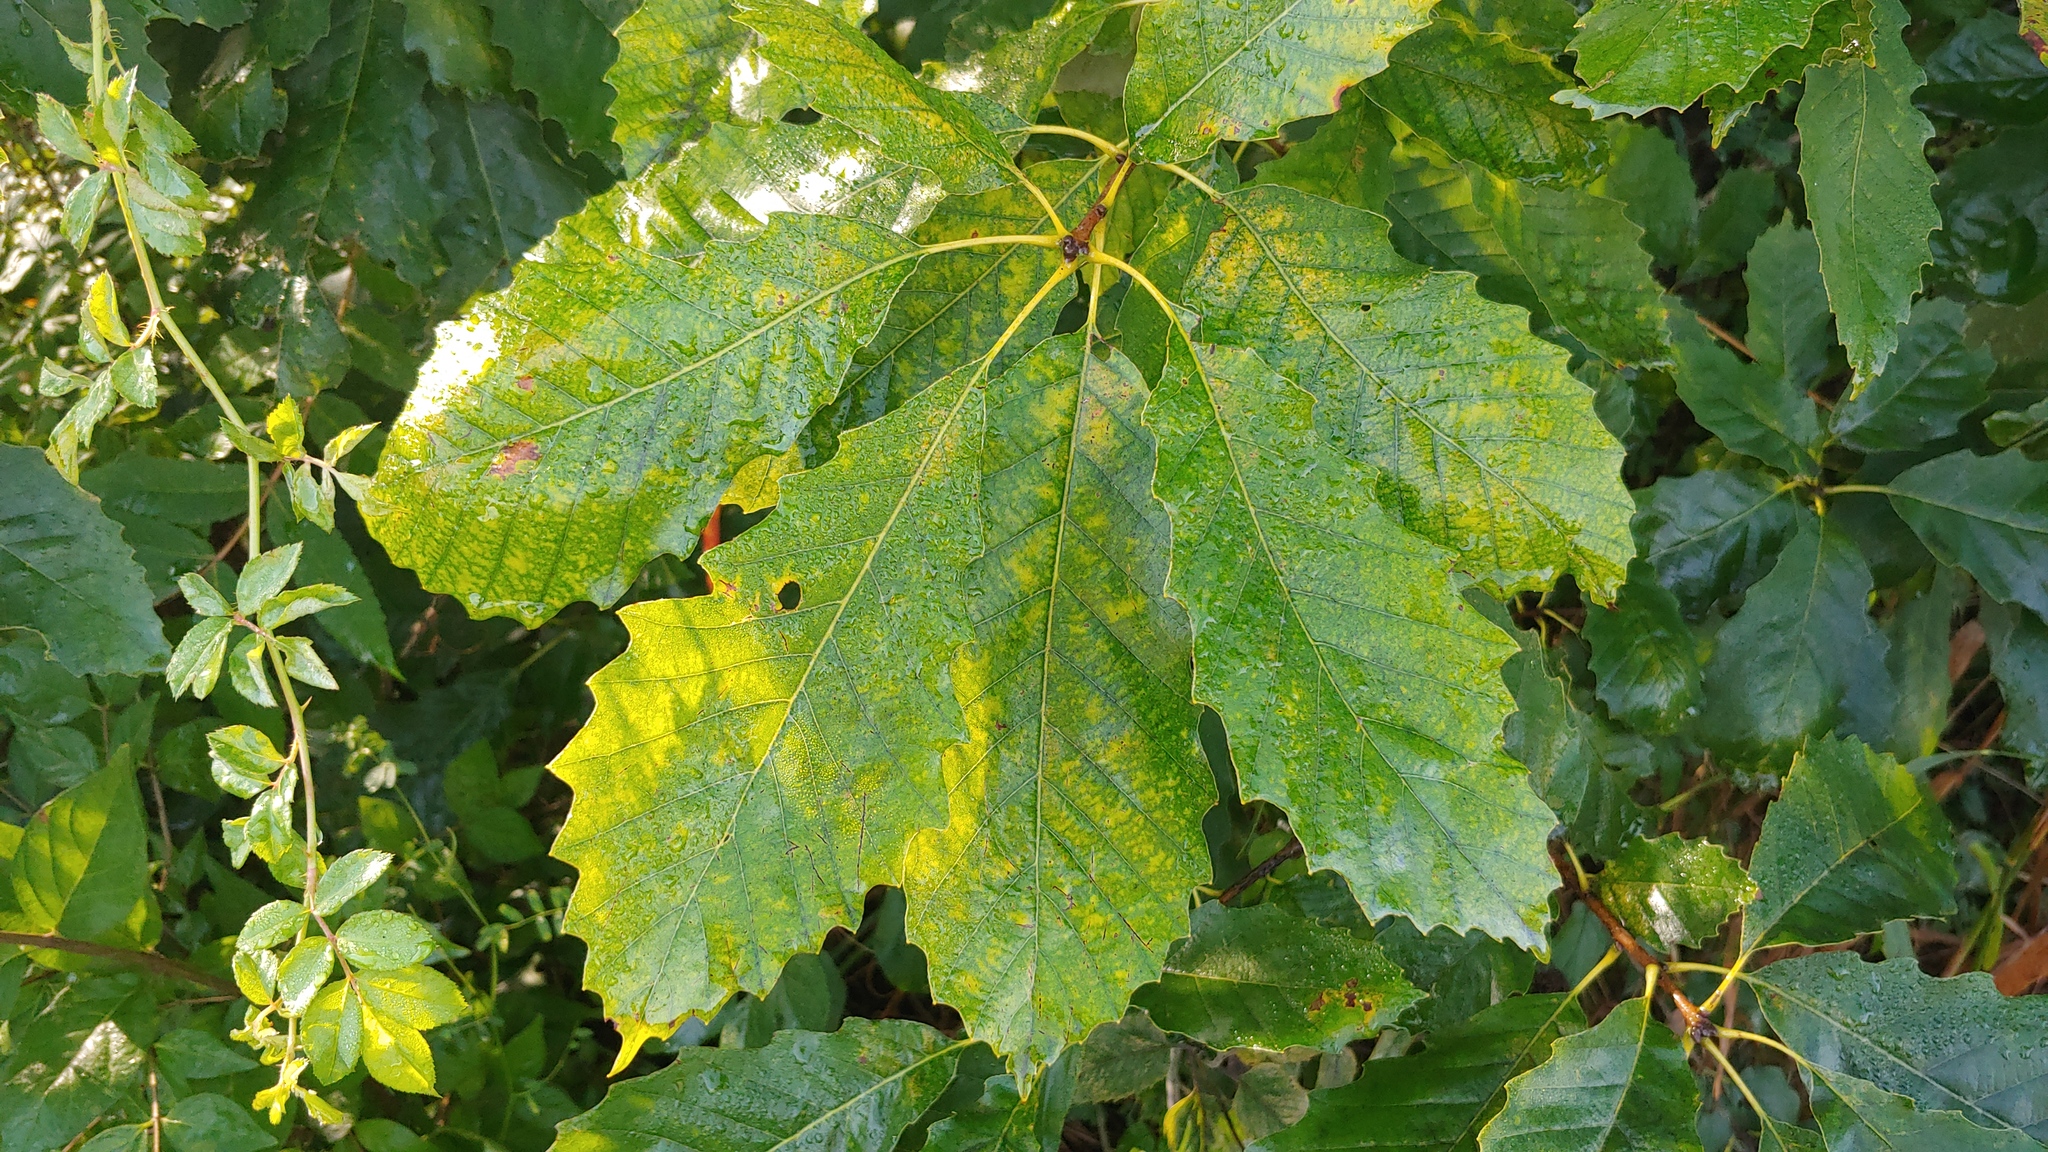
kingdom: Plantae
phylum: Tracheophyta
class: Magnoliopsida
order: Fagales
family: Fagaceae
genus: Quercus
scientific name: Quercus muehlenbergii
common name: Chinkapin oak
